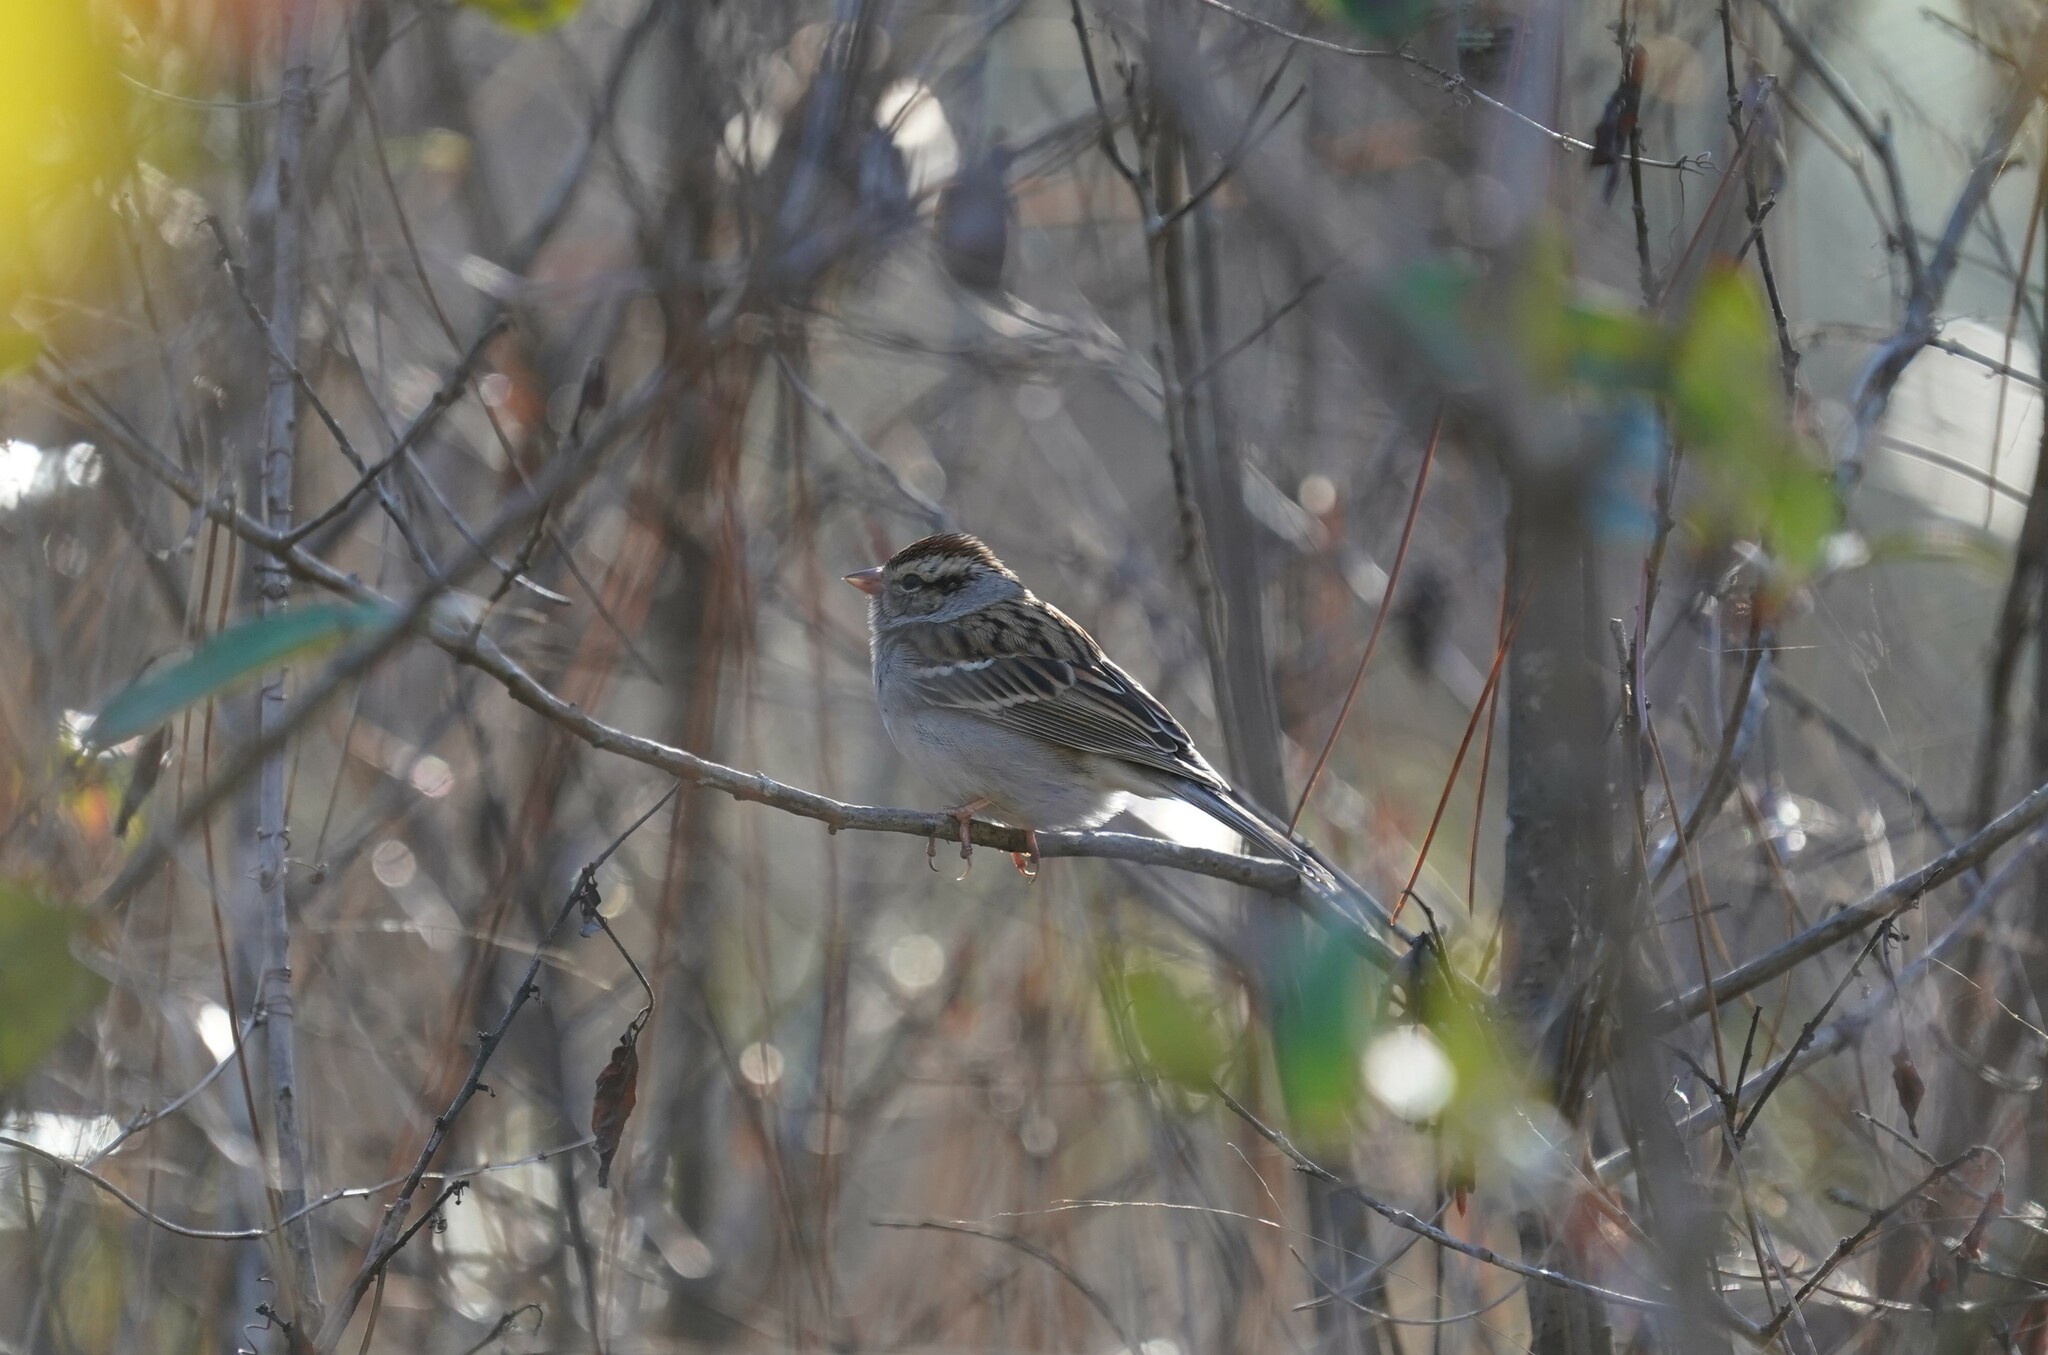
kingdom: Animalia
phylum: Chordata
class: Aves
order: Passeriformes
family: Passerellidae
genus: Spizella
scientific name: Spizella passerina
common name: Chipping sparrow
